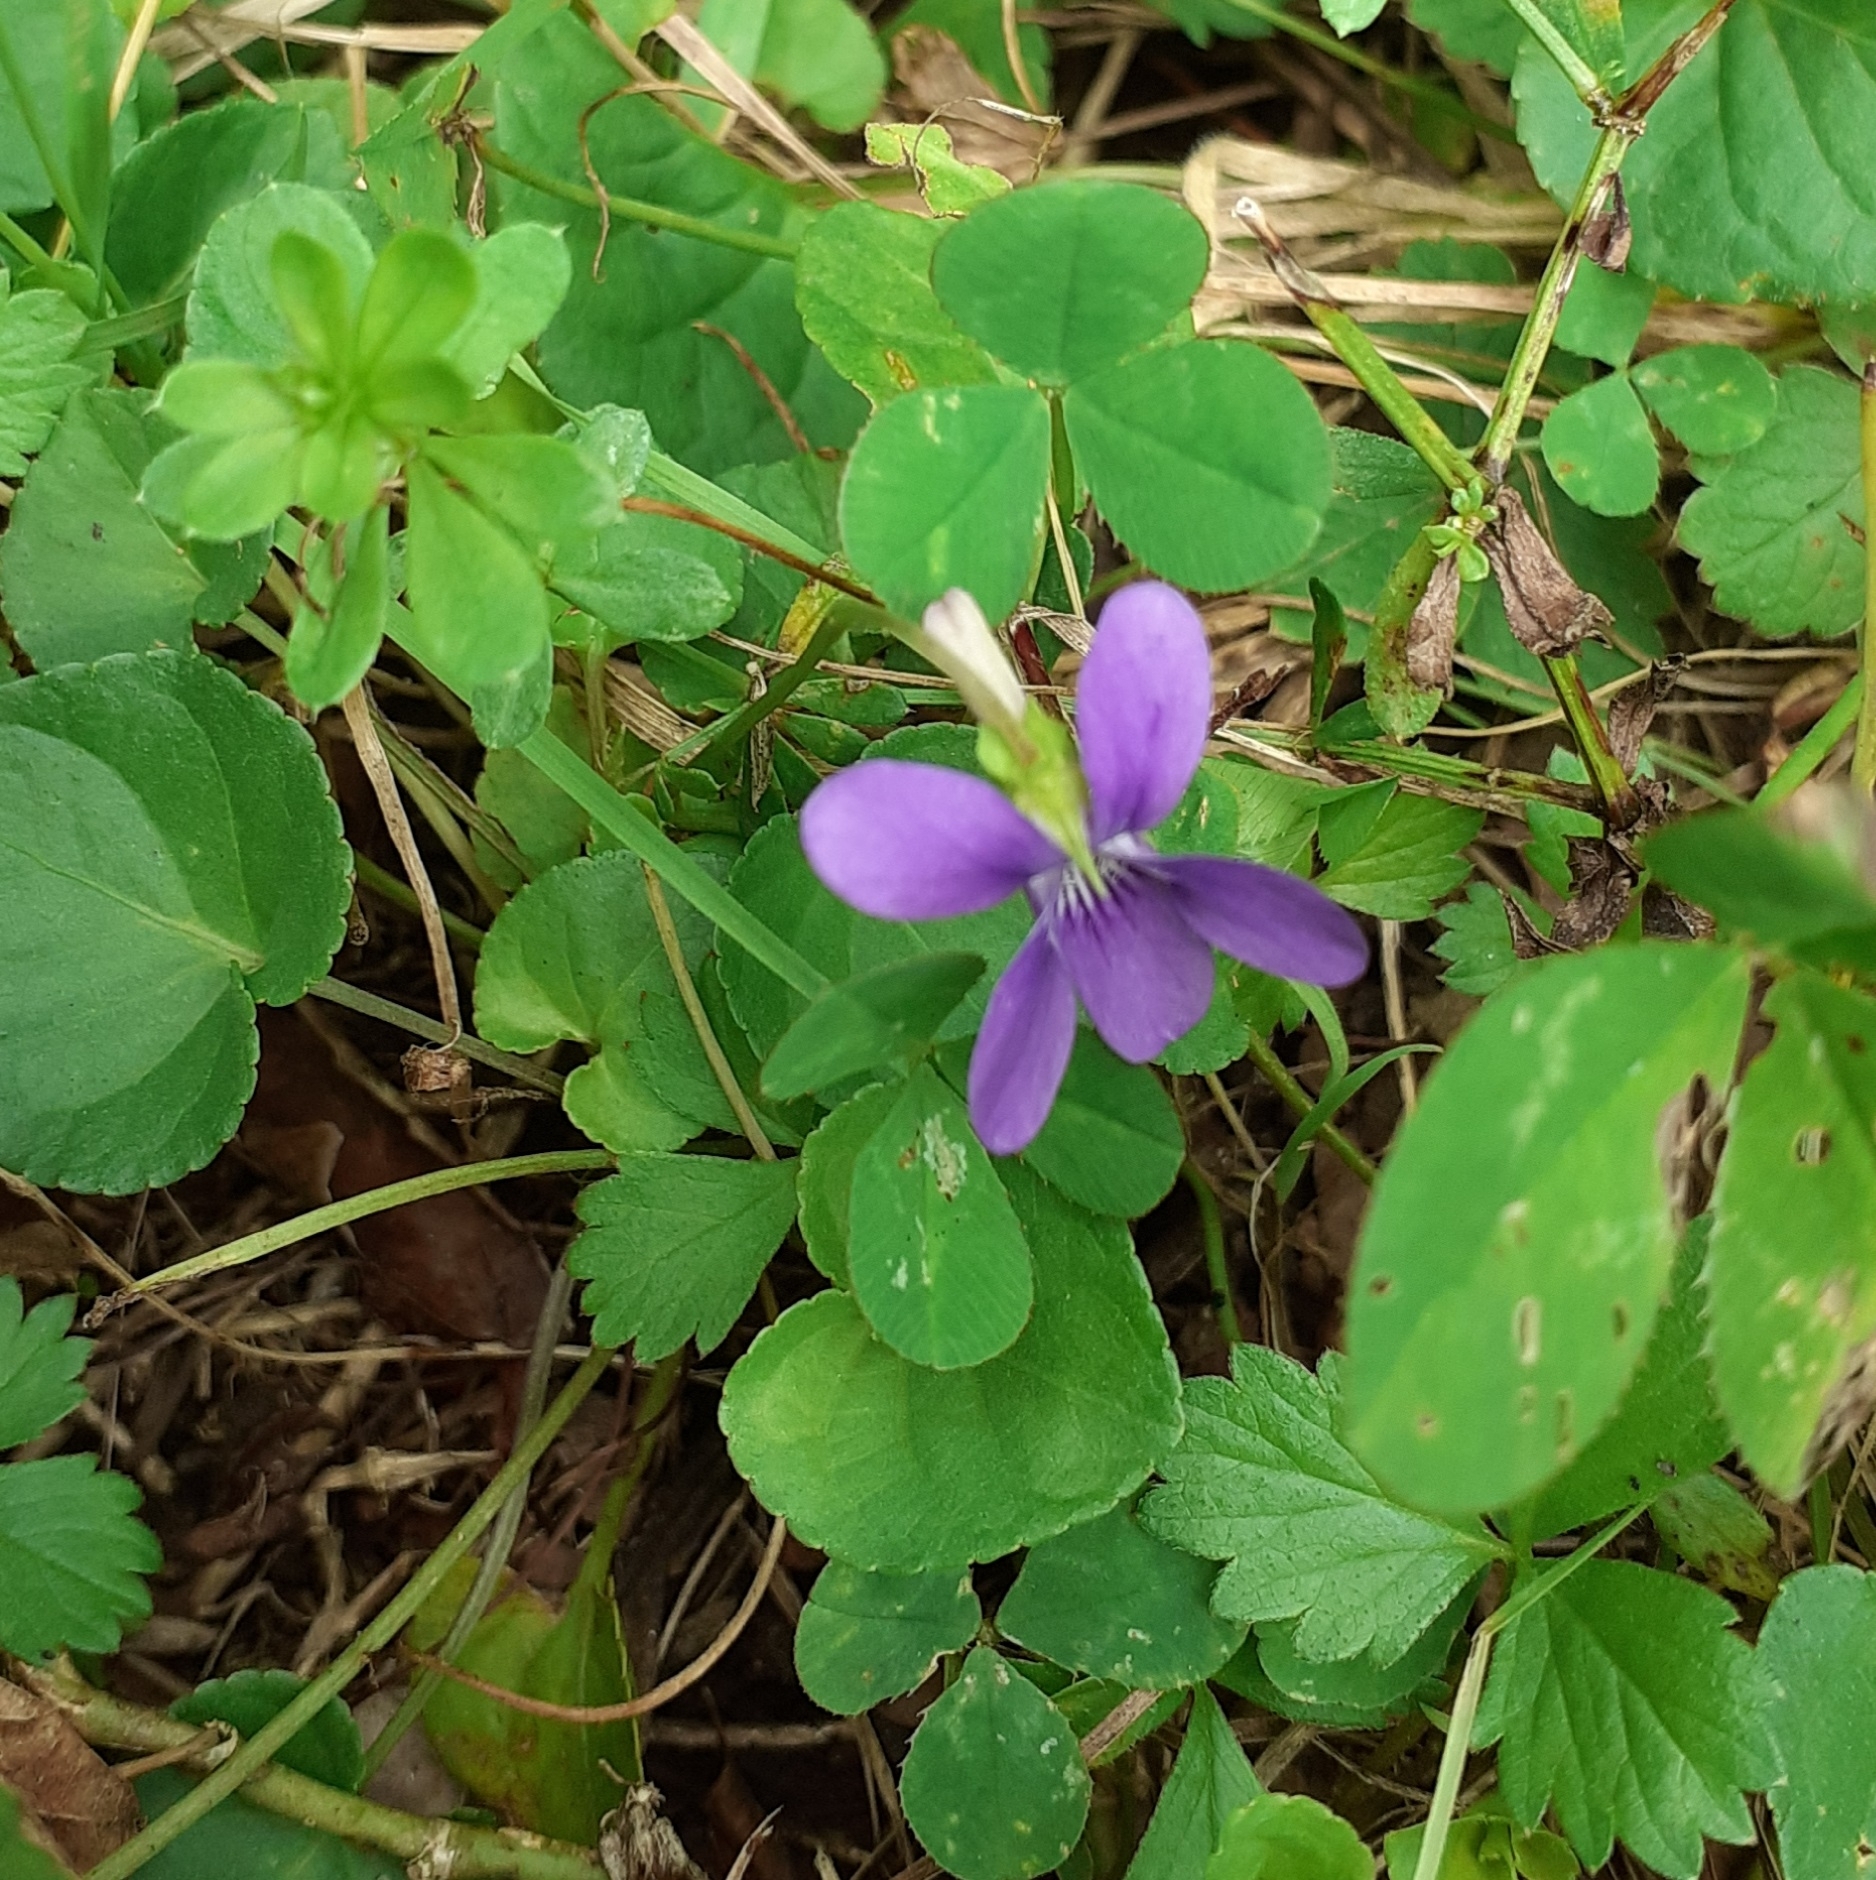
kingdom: Plantae
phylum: Tracheophyta
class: Magnoliopsida
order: Malpighiales
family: Violaceae
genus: Viola
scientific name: Viola riviniana
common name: Common dog-violet
